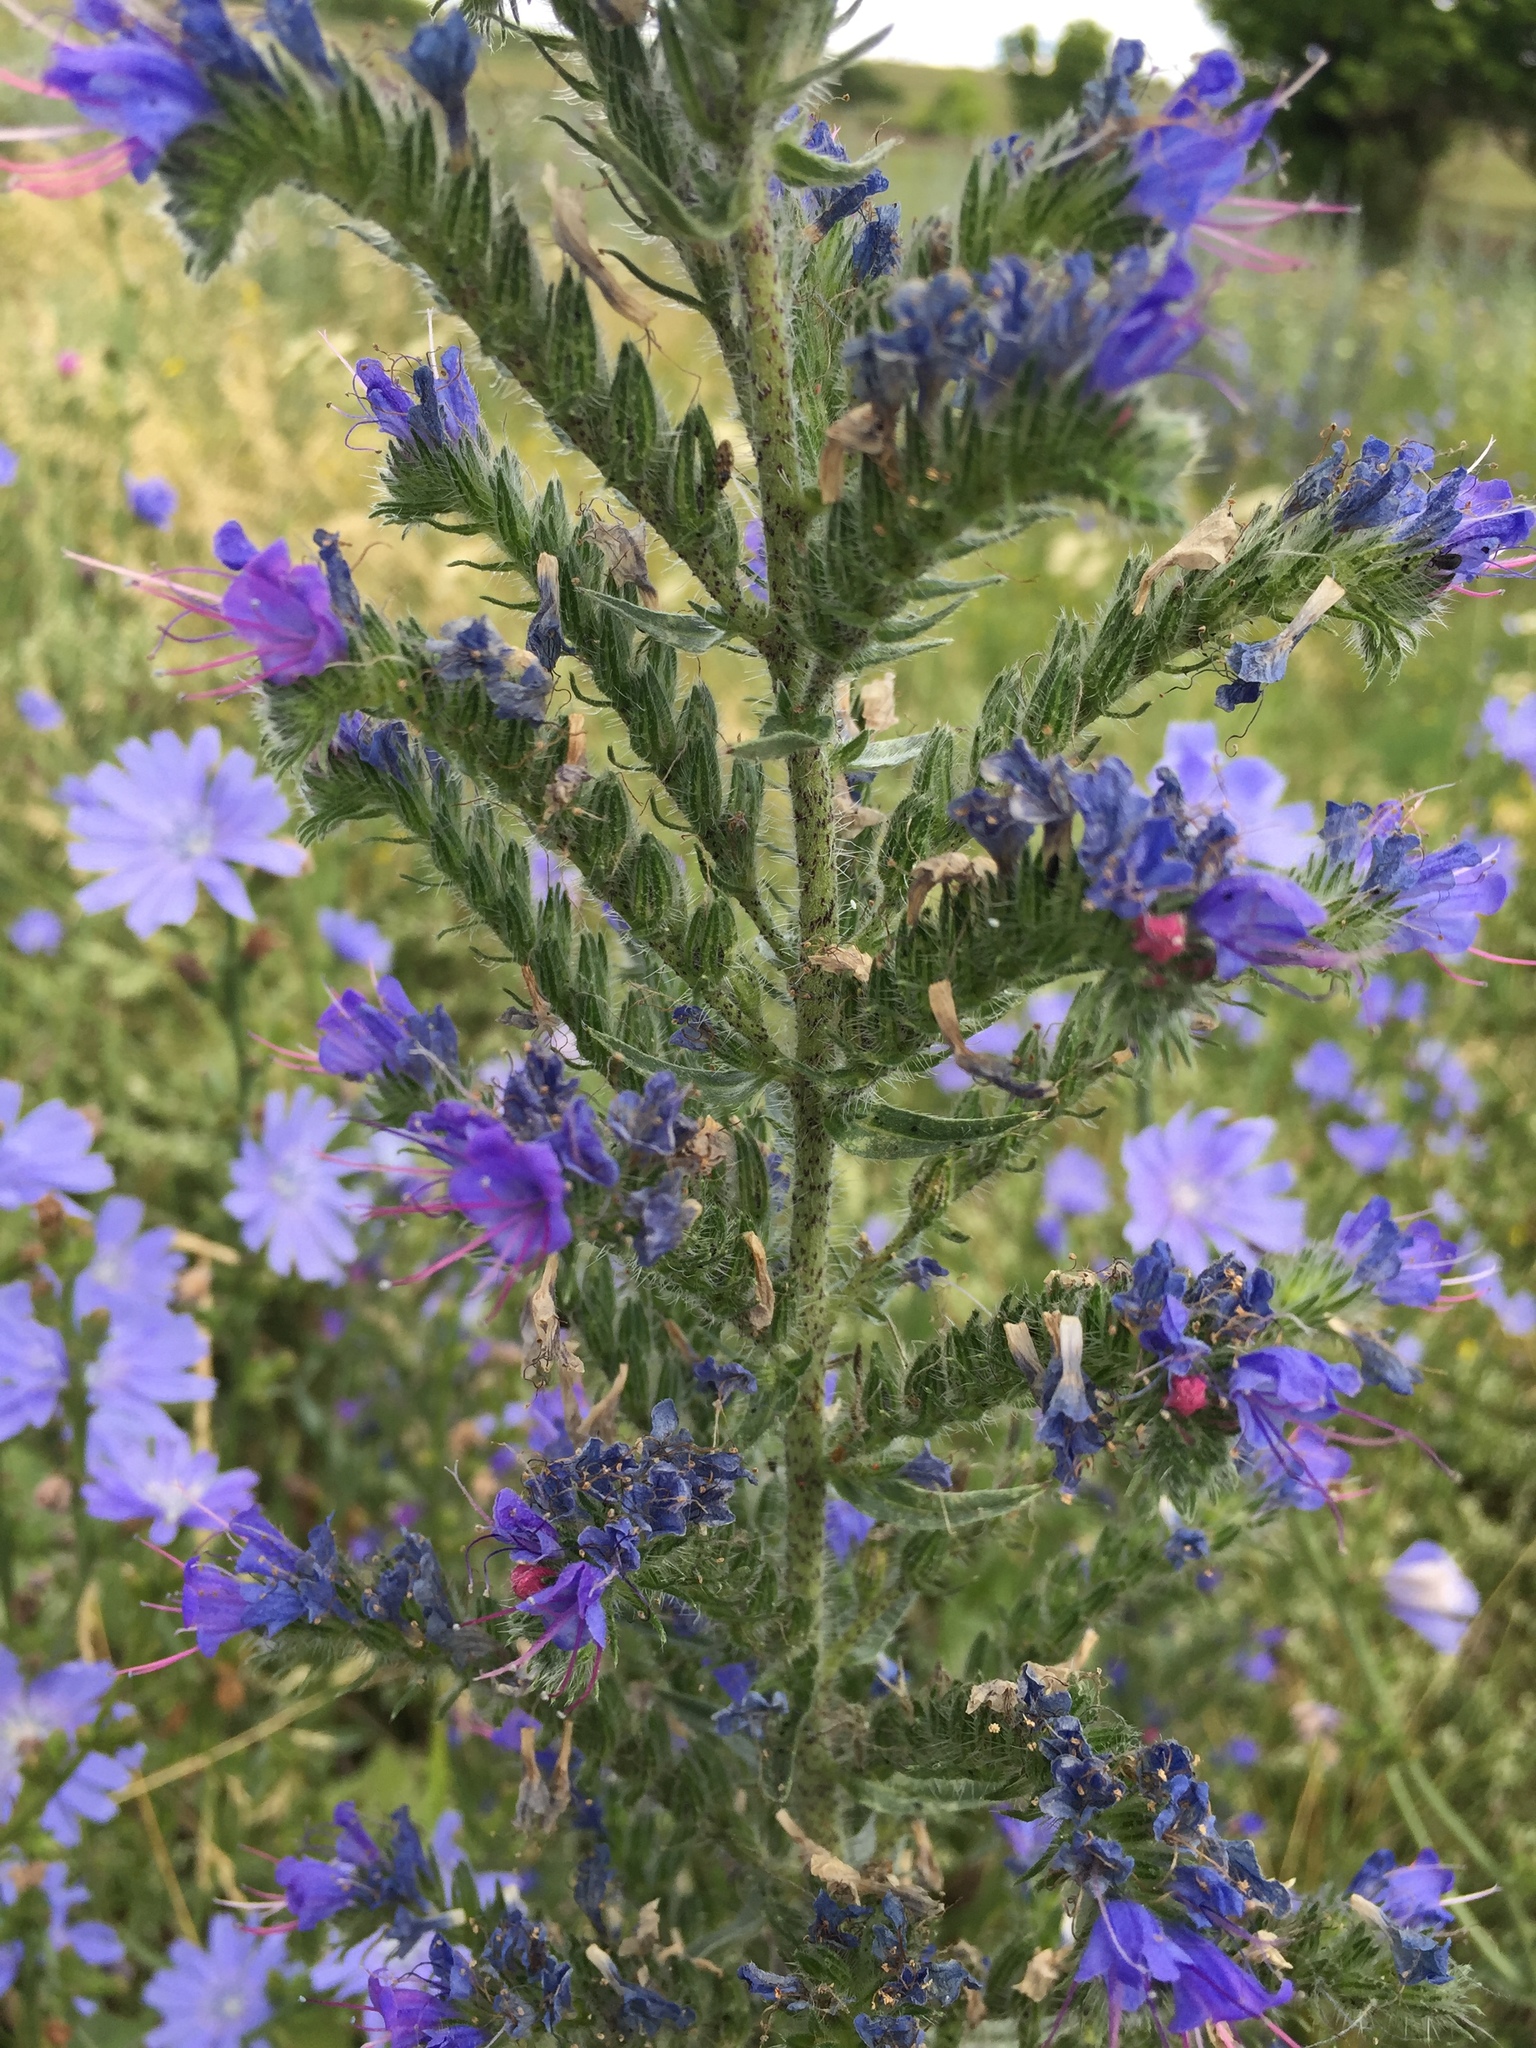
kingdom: Plantae
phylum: Tracheophyta
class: Magnoliopsida
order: Boraginales
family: Boraginaceae
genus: Echium
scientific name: Echium vulgare
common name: Common viper's bugloss
